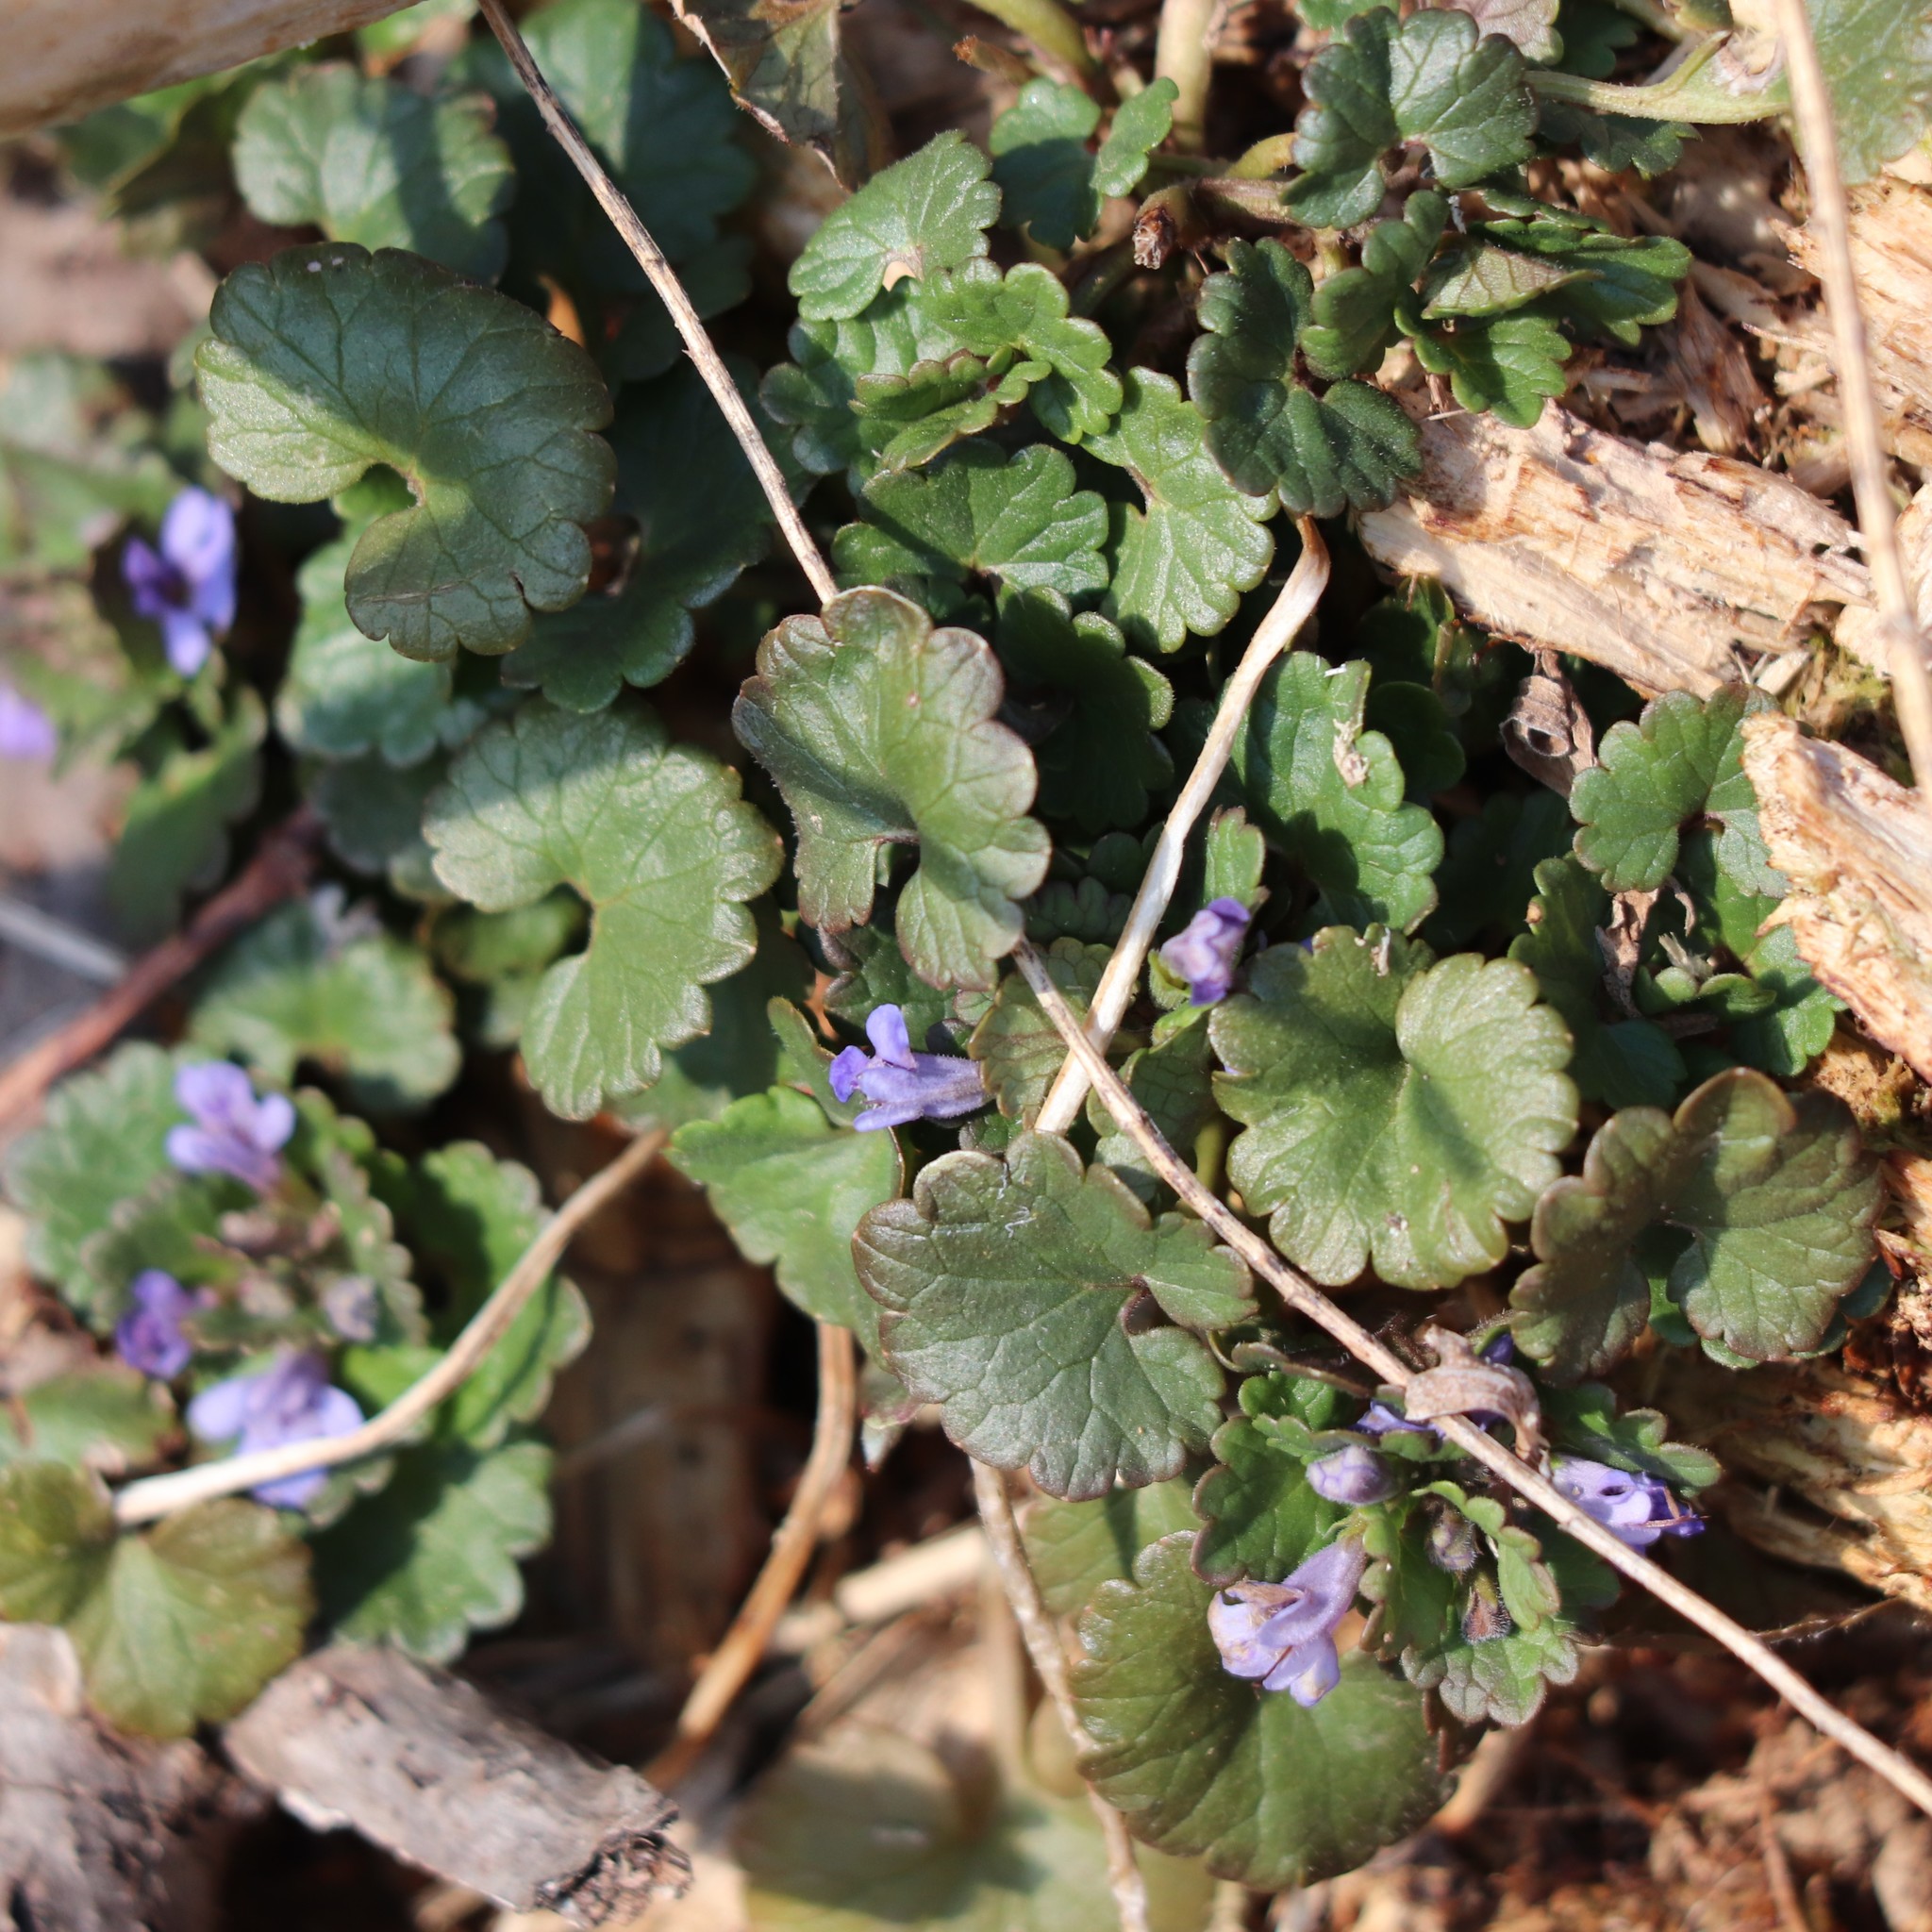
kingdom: Plantae
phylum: Tracheophyta
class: Magnoliopsida
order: Lamiales
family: Lamiaceae
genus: Glechoma
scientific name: Glechoma hederacea
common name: Ground ivy
